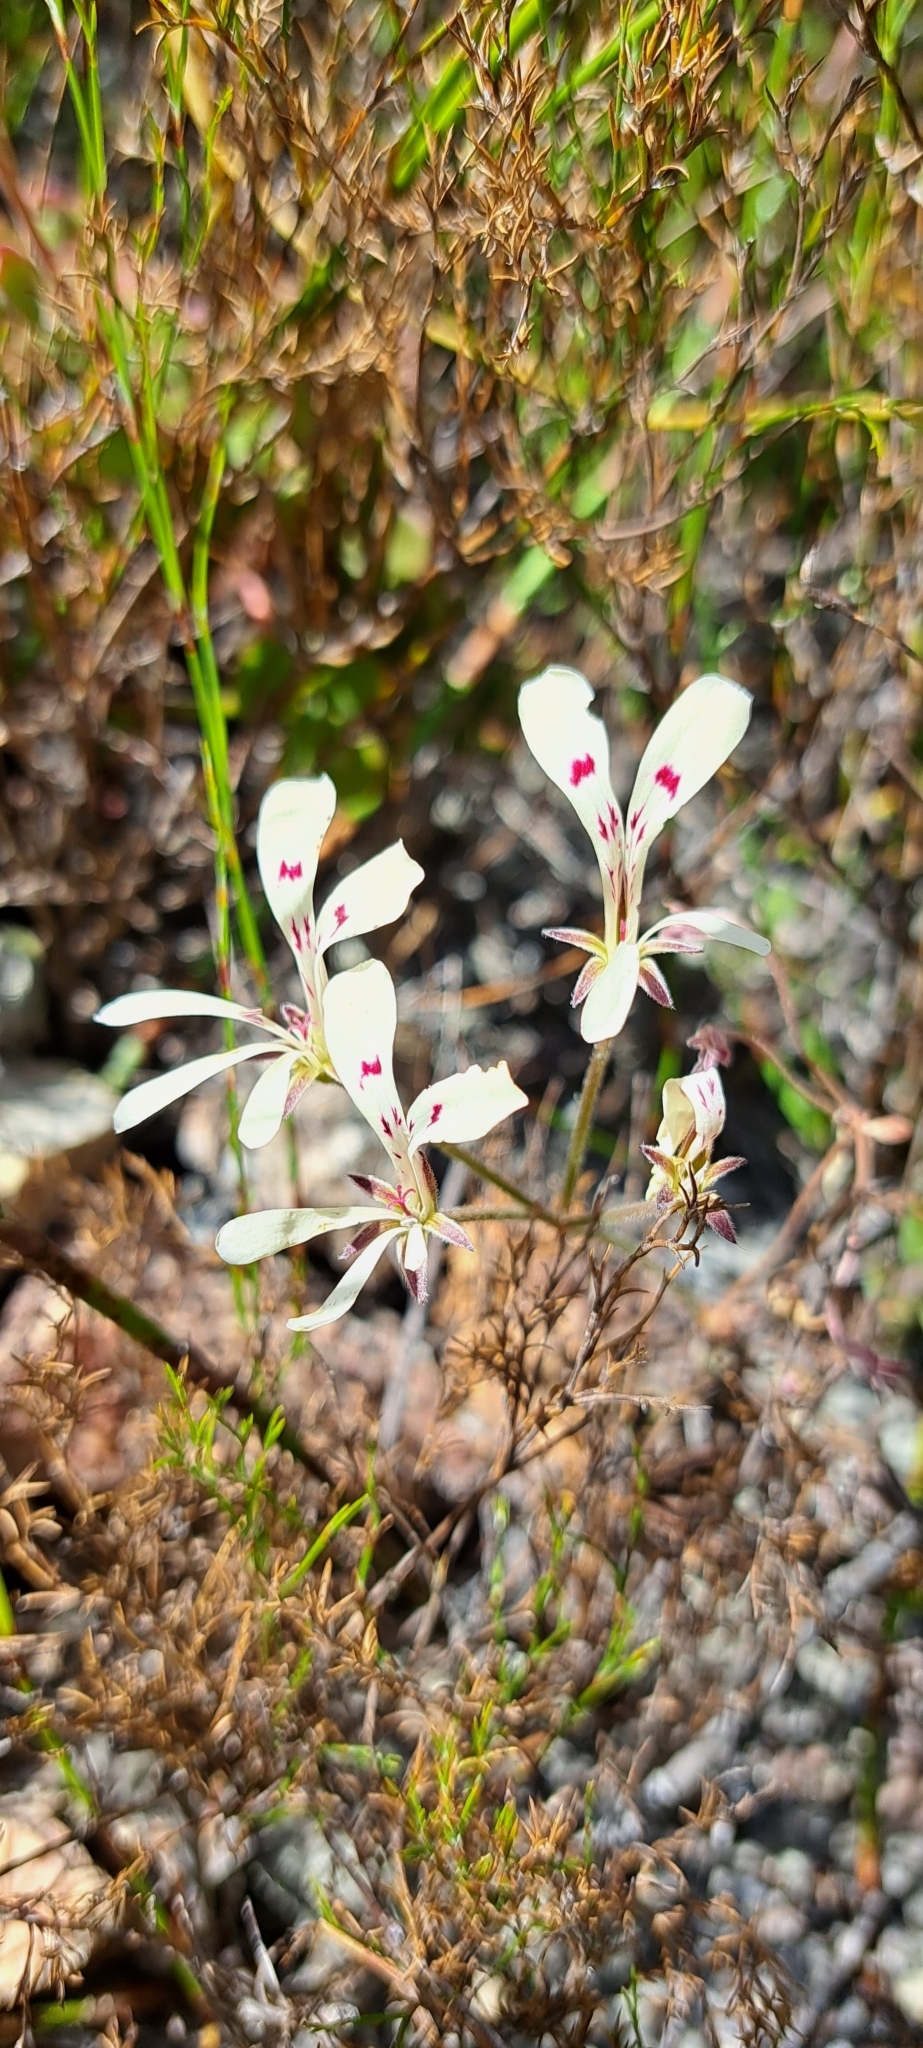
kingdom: Plantae
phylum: Tracheophyta
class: Magnoliopsida
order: Geraniales
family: Geraniaceae
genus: Pelargonium
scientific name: Pelargonium pinnatum
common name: Pinnated pelargonium
